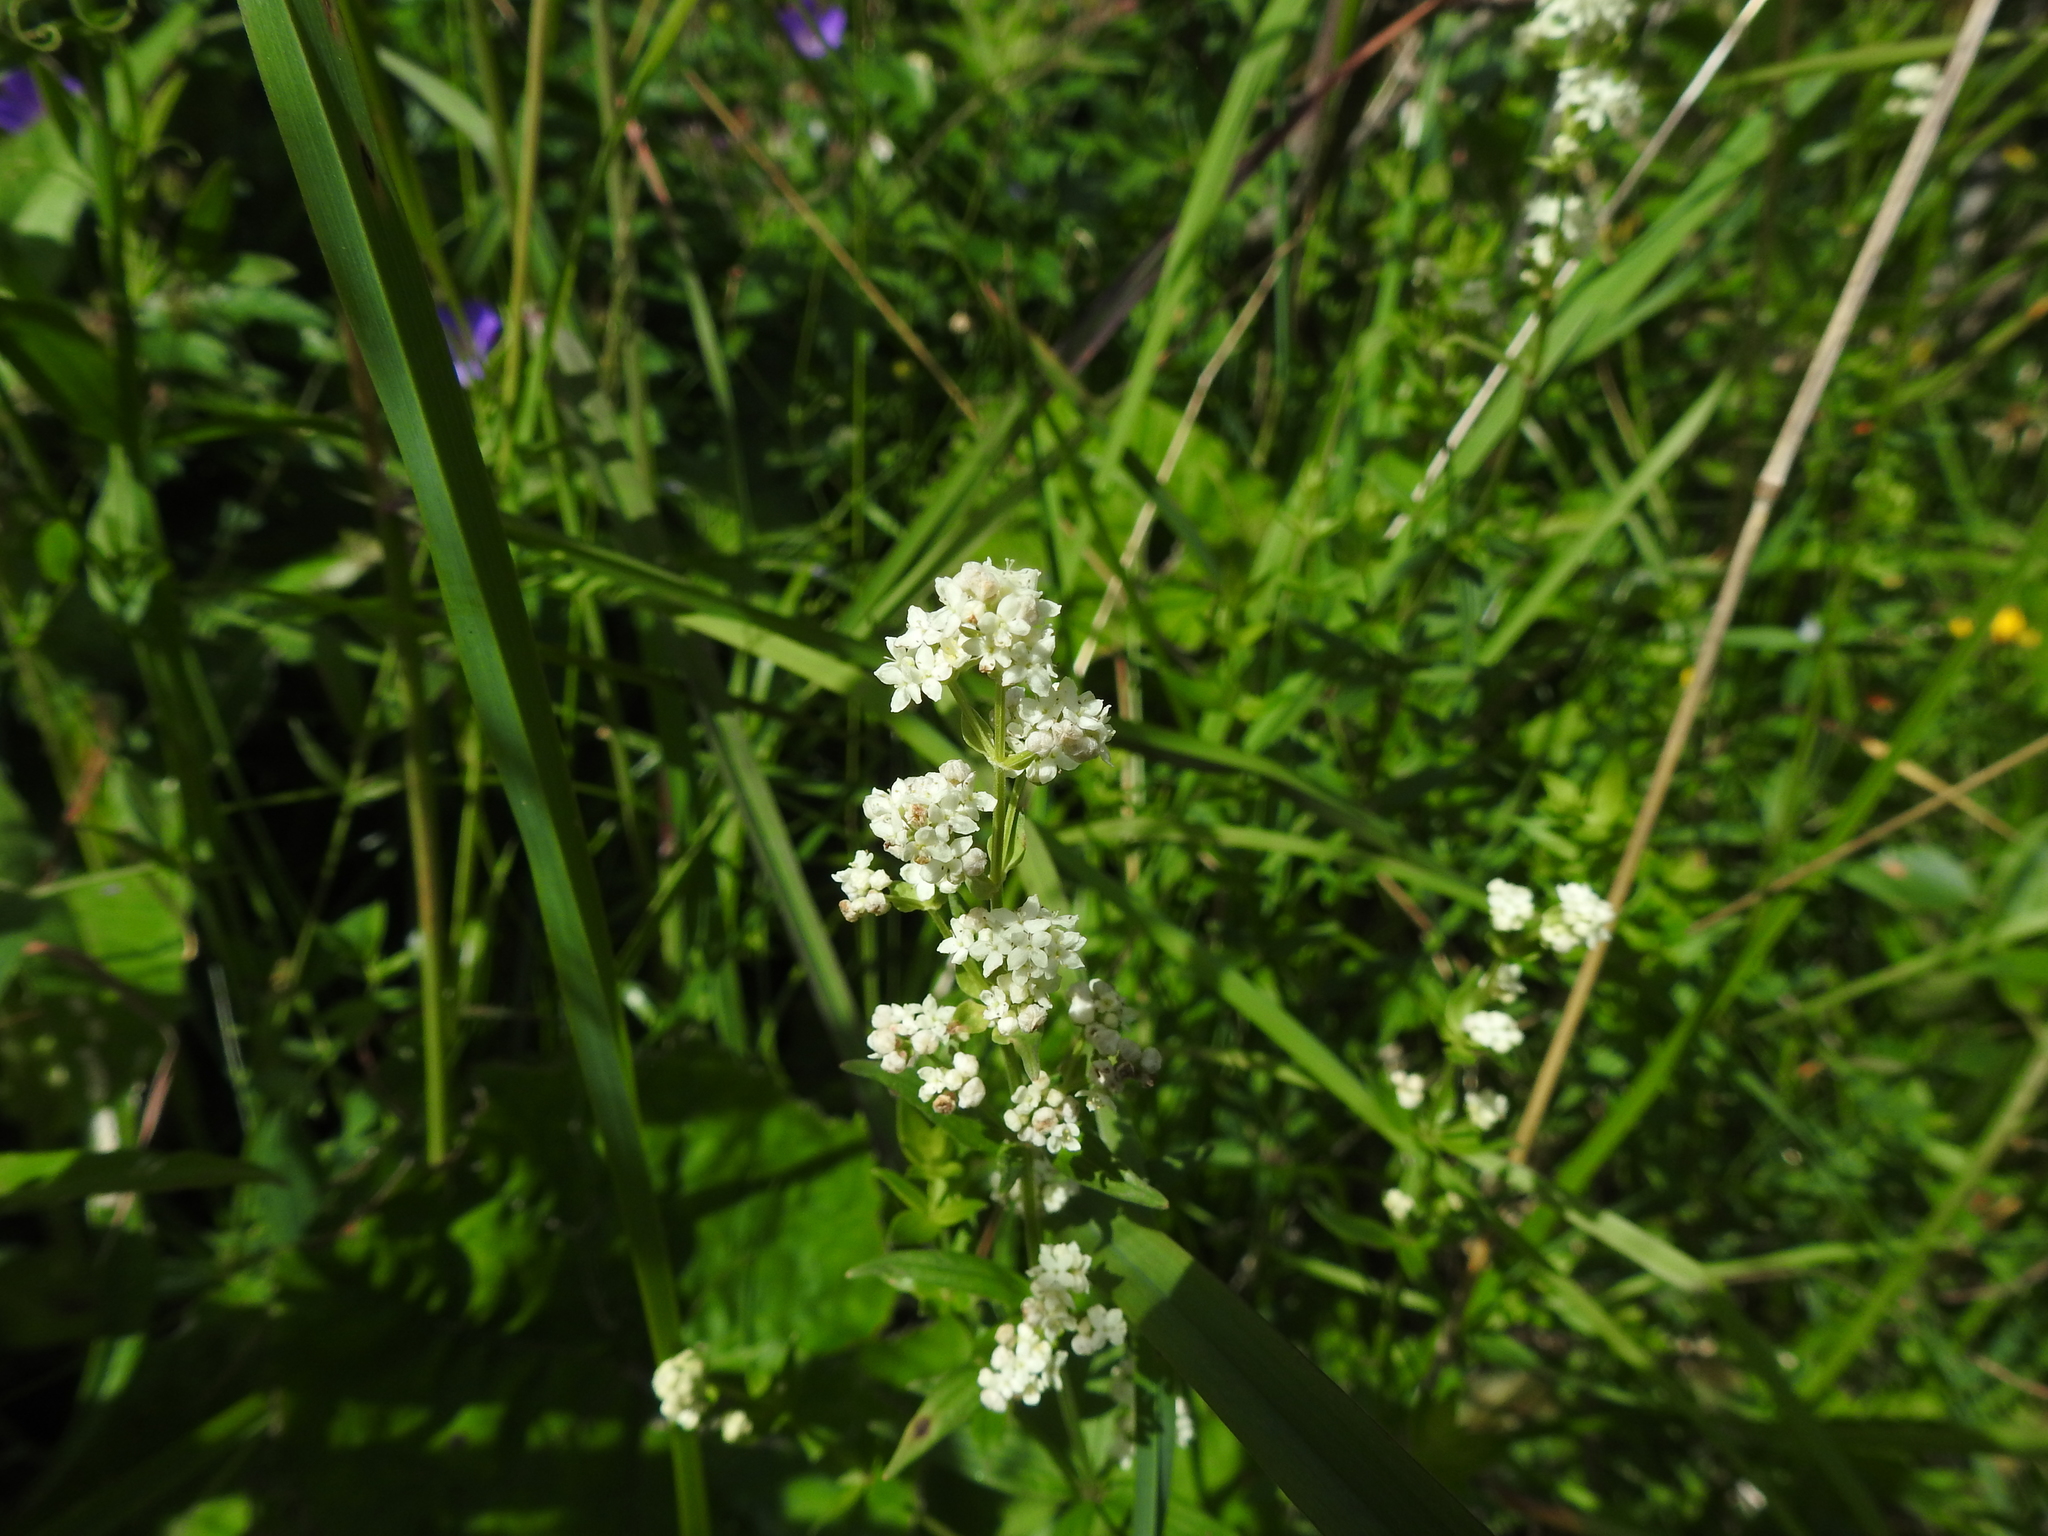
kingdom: Plantae
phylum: Tracheophyta
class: Magnoliopsida
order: Gentianales
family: Rubiaceae
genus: Galium
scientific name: Galium boreale
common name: Northern bedstraw
